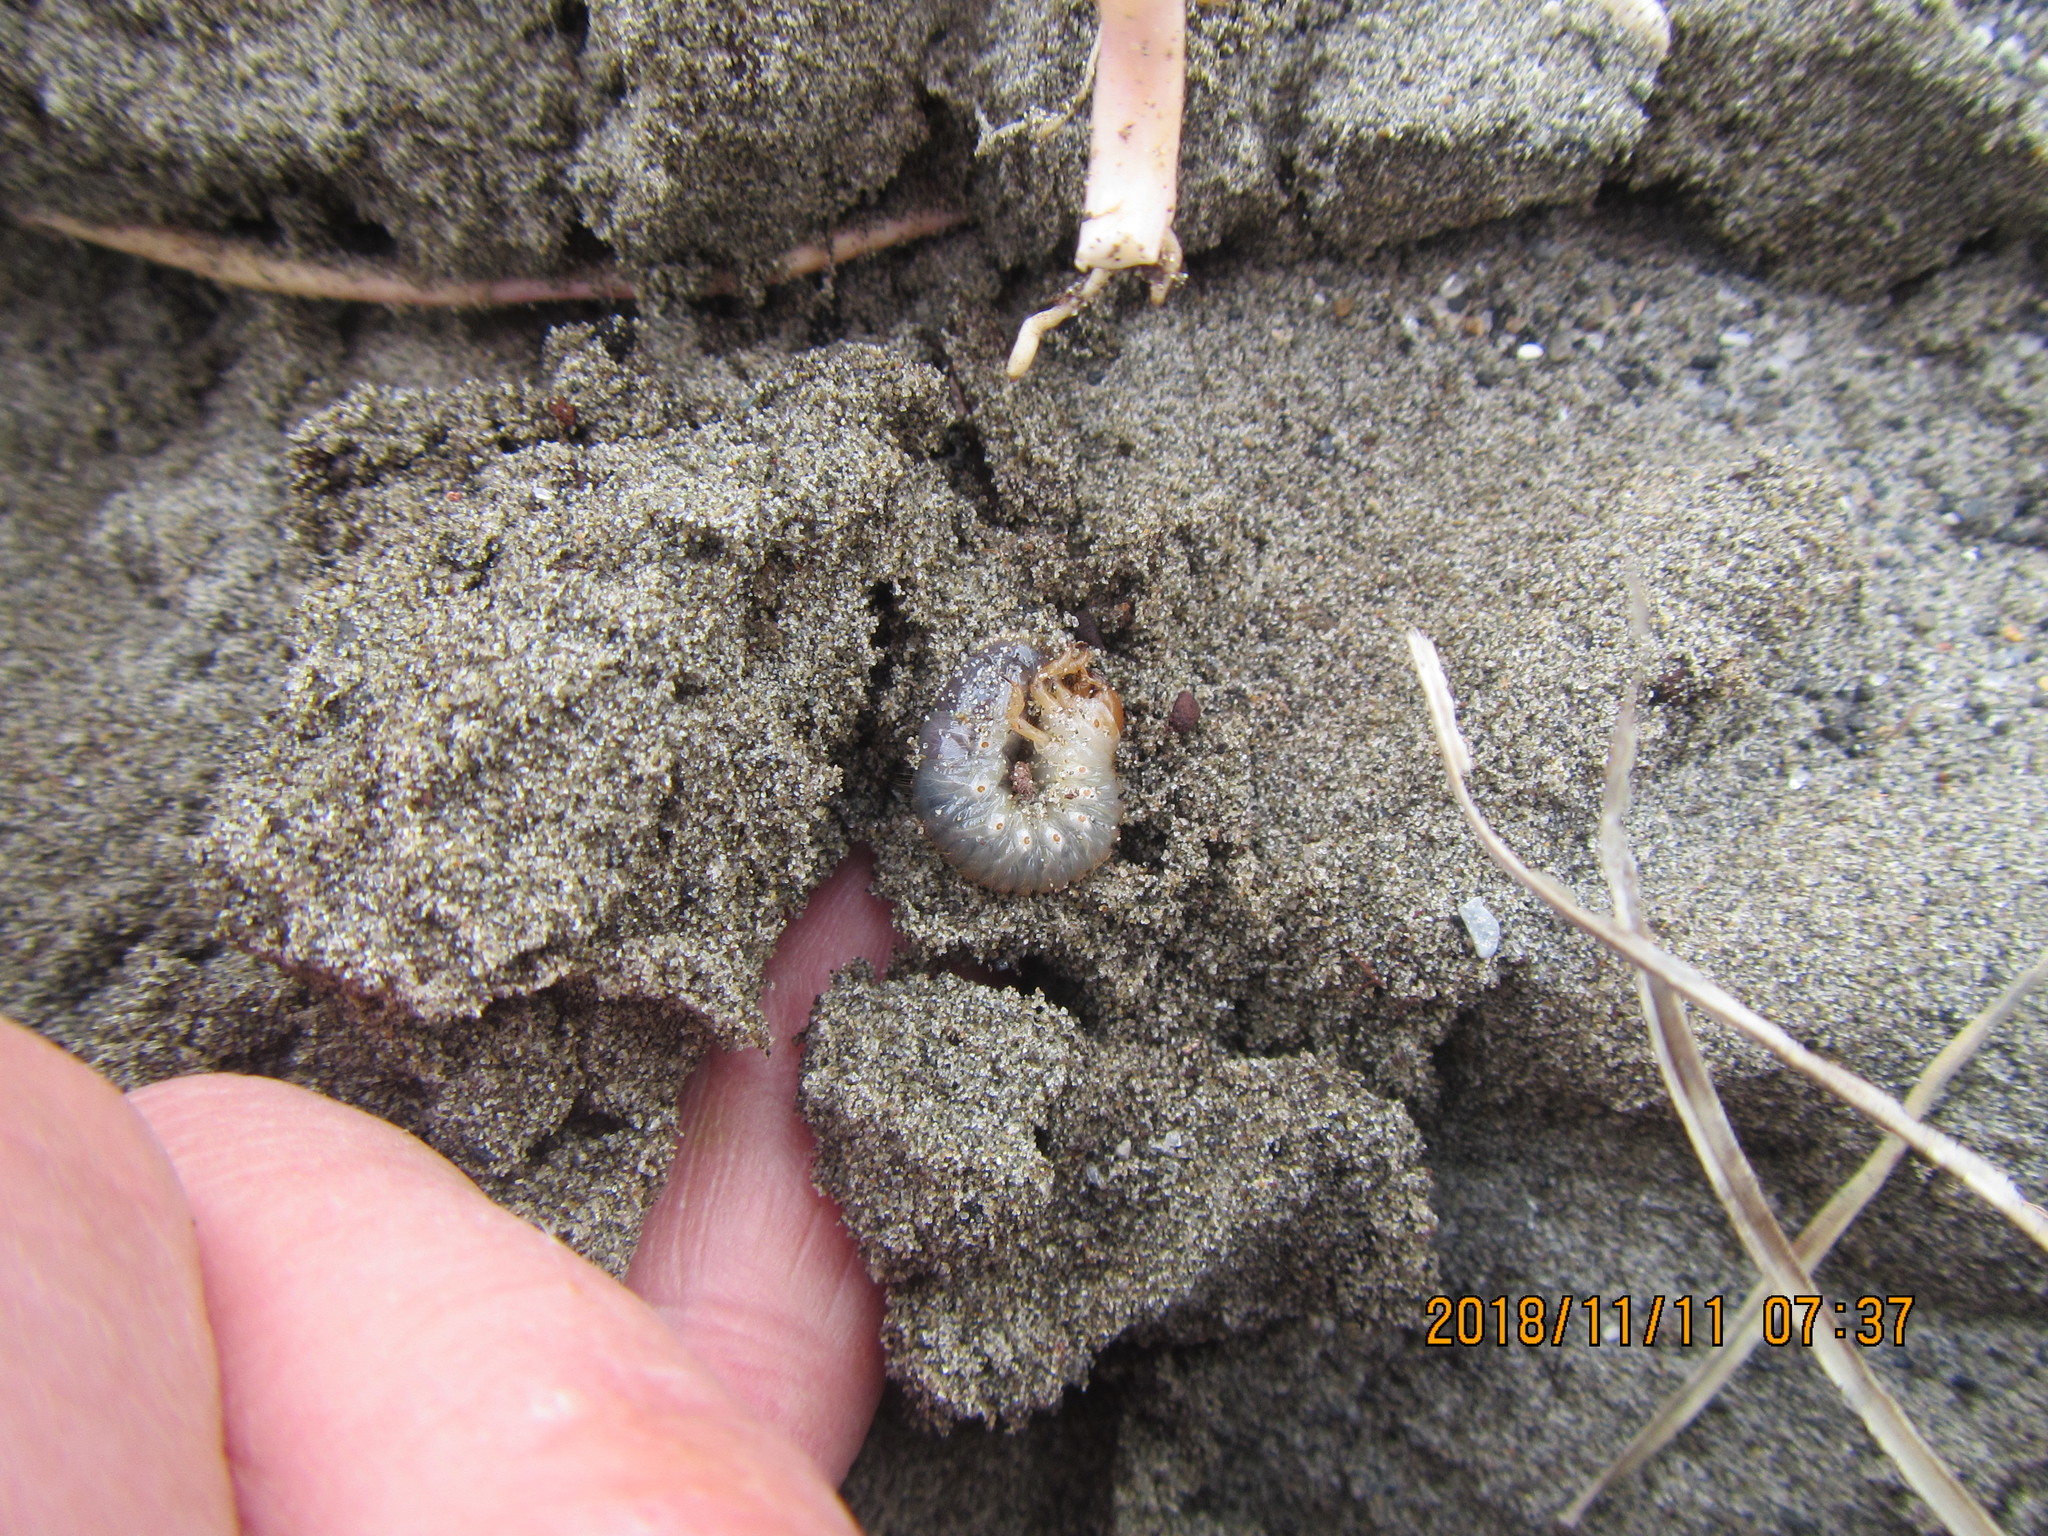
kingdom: Animalia
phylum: Arthropoda
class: Insecta
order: Coleoptera
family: Scarabaeidae
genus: Pericoptus
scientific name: Pericoptus truncatus
